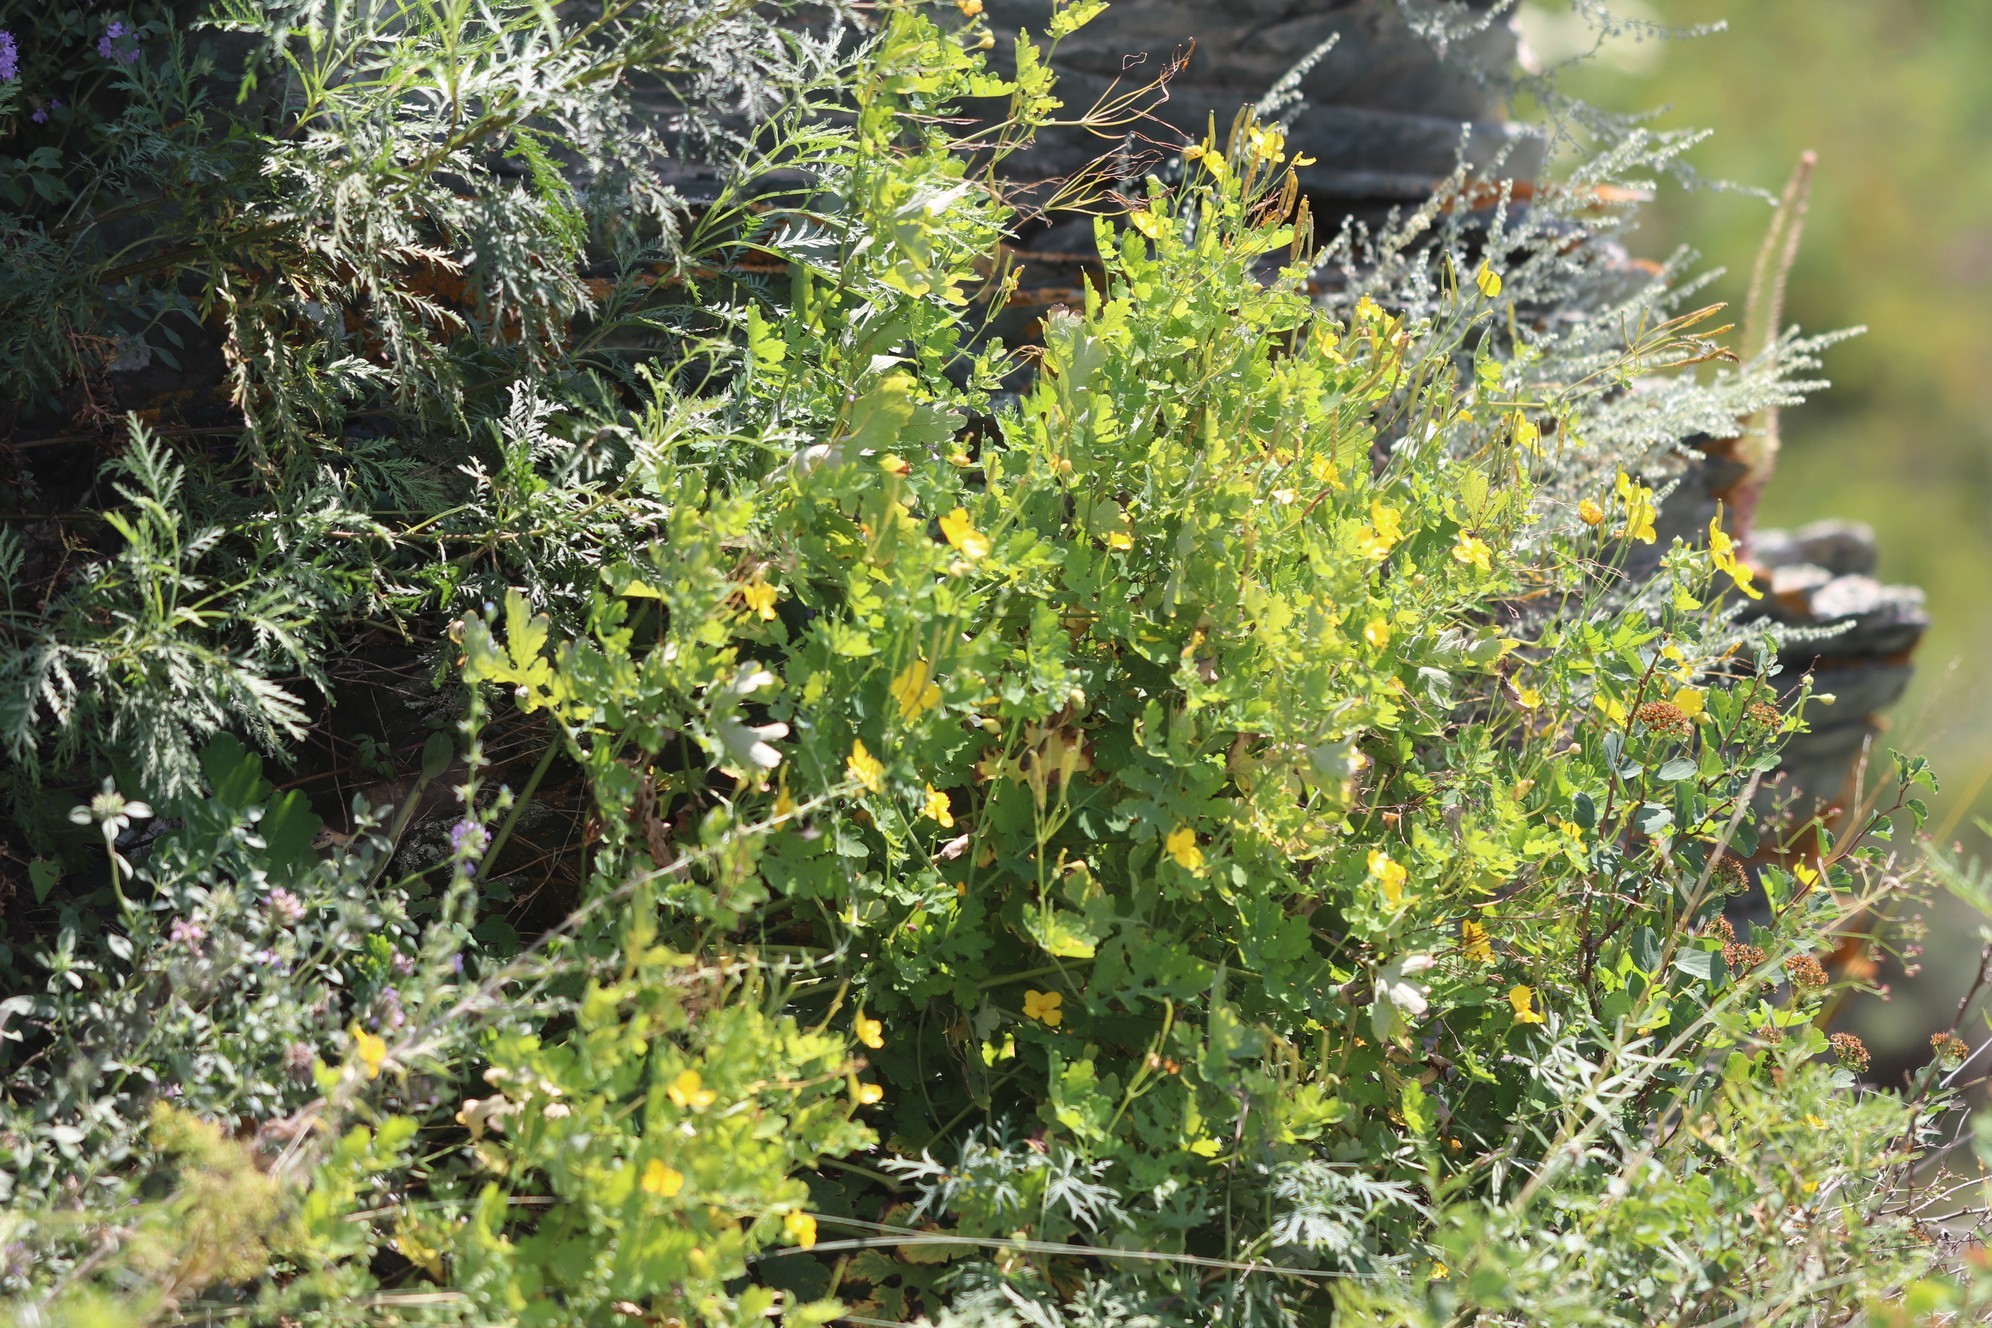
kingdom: Plantae
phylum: Tracheophyta
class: Magnoliopsida
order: Ranunculales
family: Papaveraceae
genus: Chelidonium
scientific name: Chelidonium majus
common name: Greater celandine
